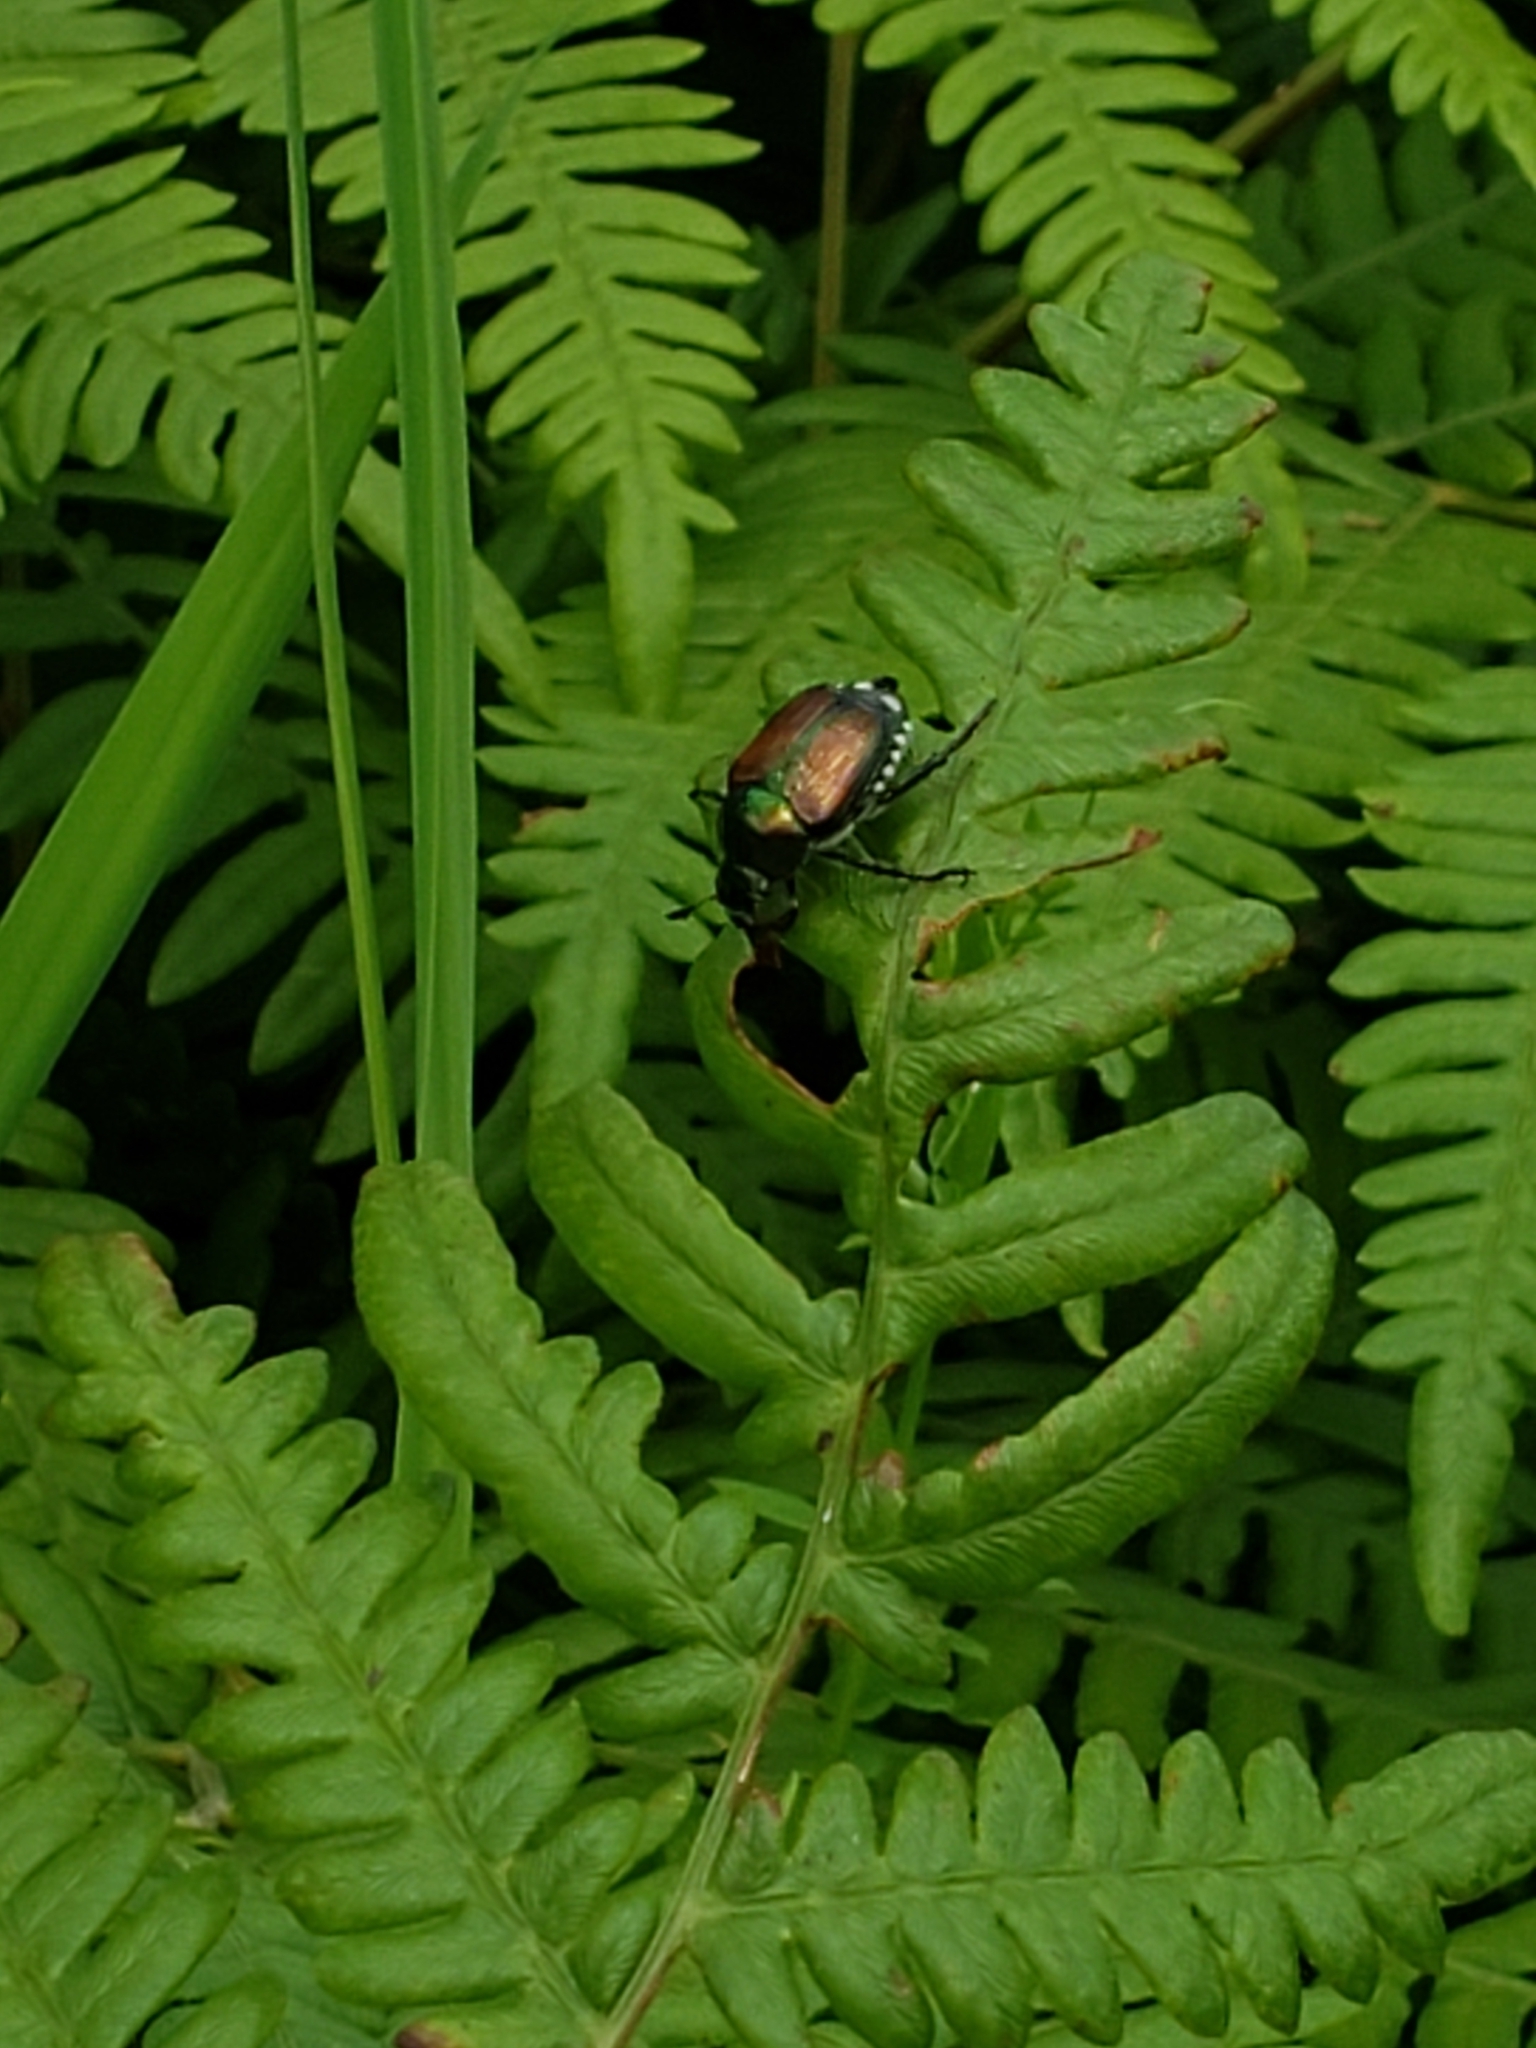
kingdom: Animalia
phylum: Arthropoda
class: Insecta
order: Coleoptera
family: Scarabaeidae
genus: Popillia
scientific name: Popillia japonica
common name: Japanese beetle
